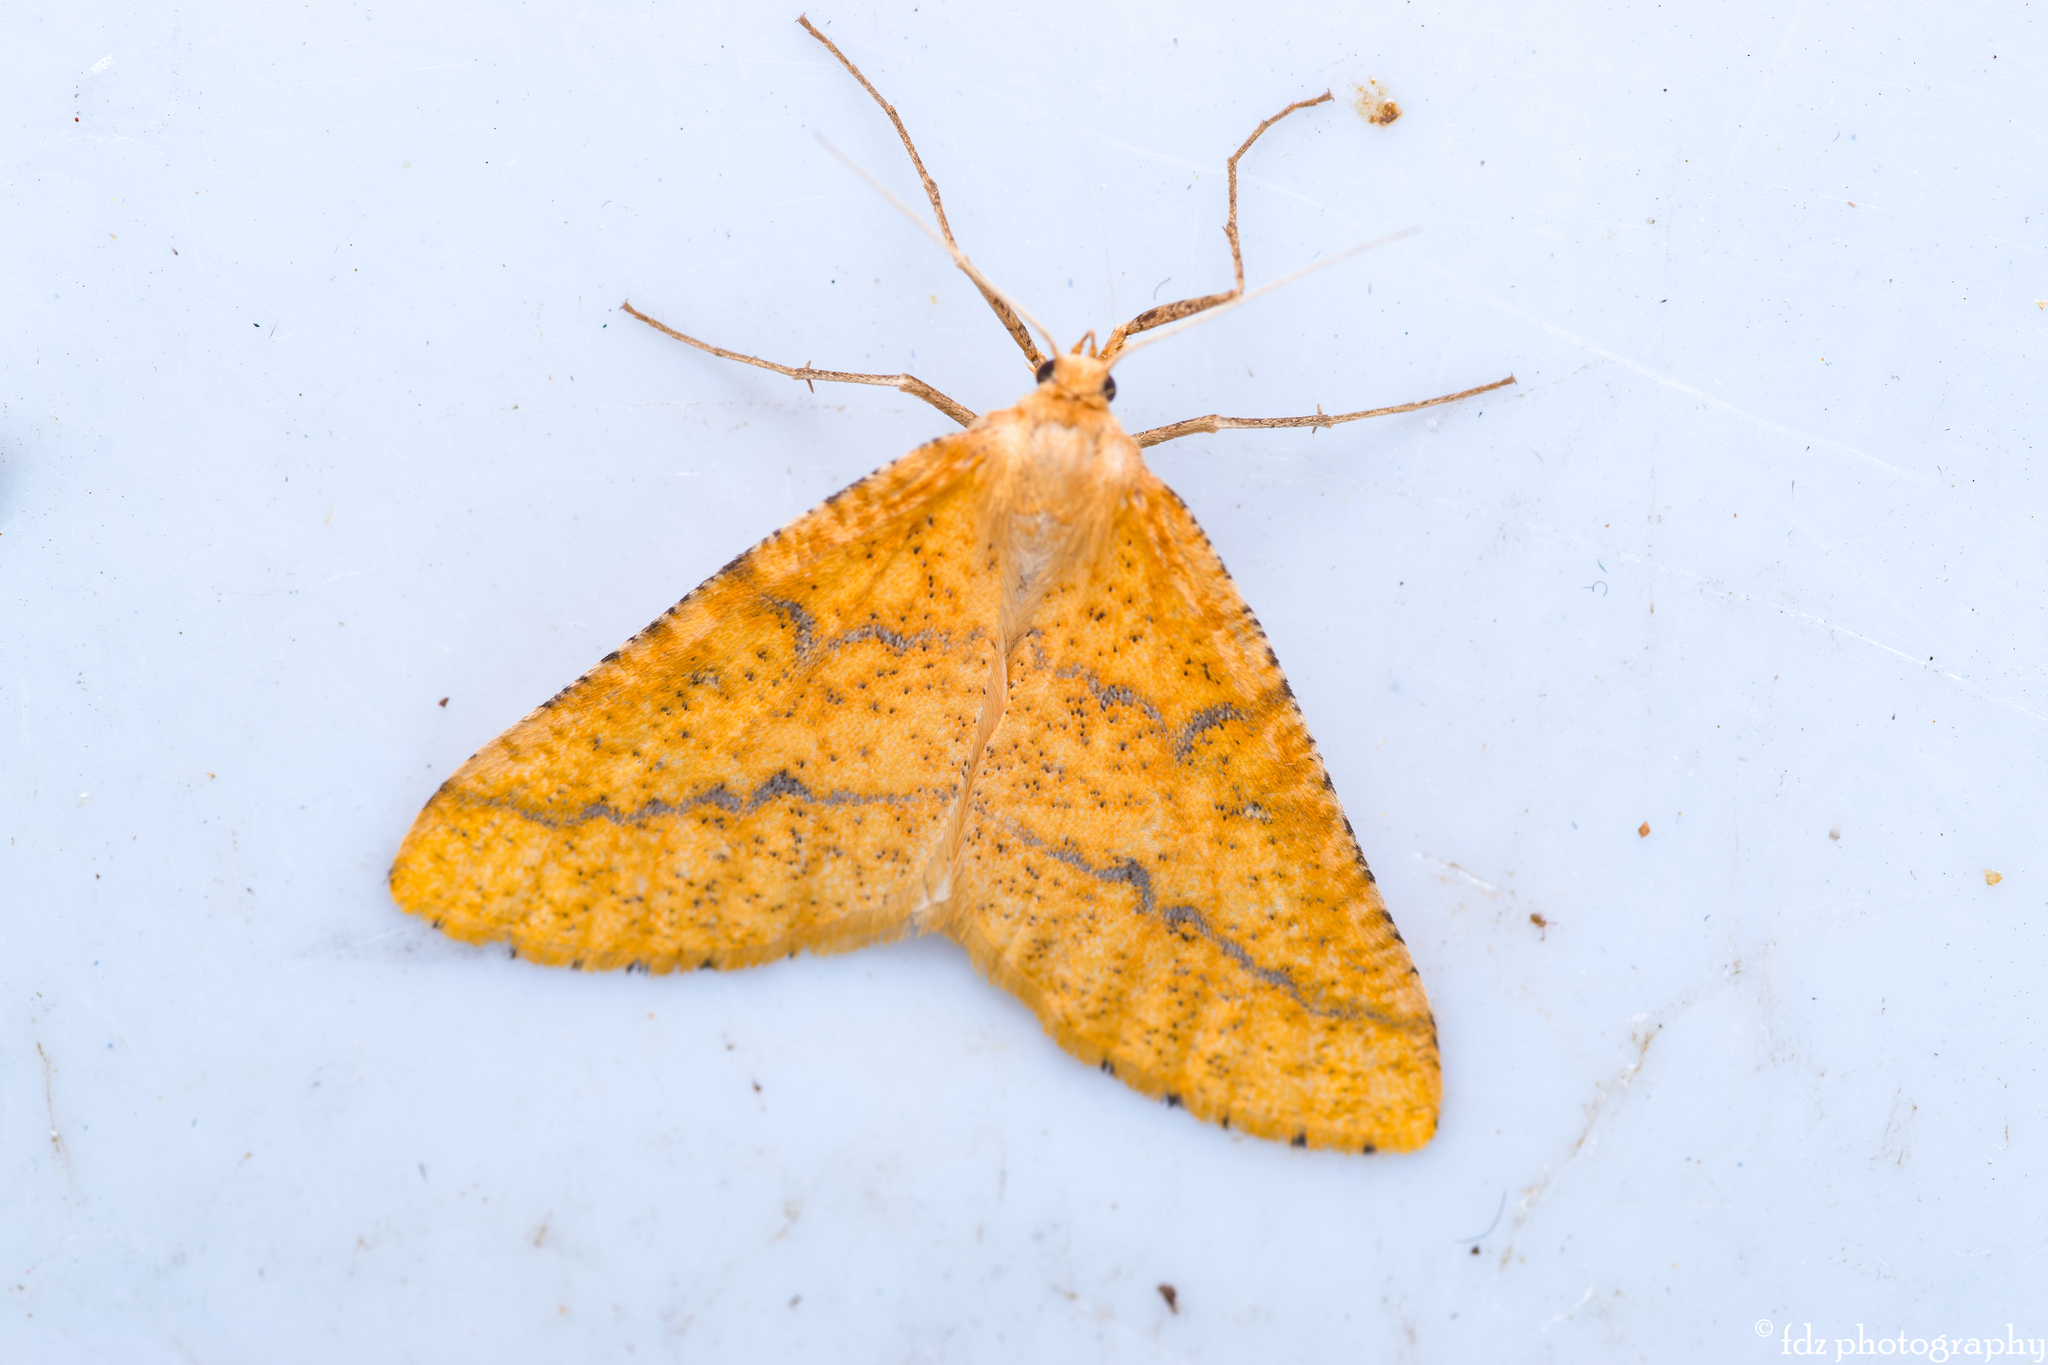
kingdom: Animalia
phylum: Arthropoda
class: Insecta
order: Lepidoptera
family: Geometridae
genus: Aspitates
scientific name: Aspitates ochrearia
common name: Yellow belle
